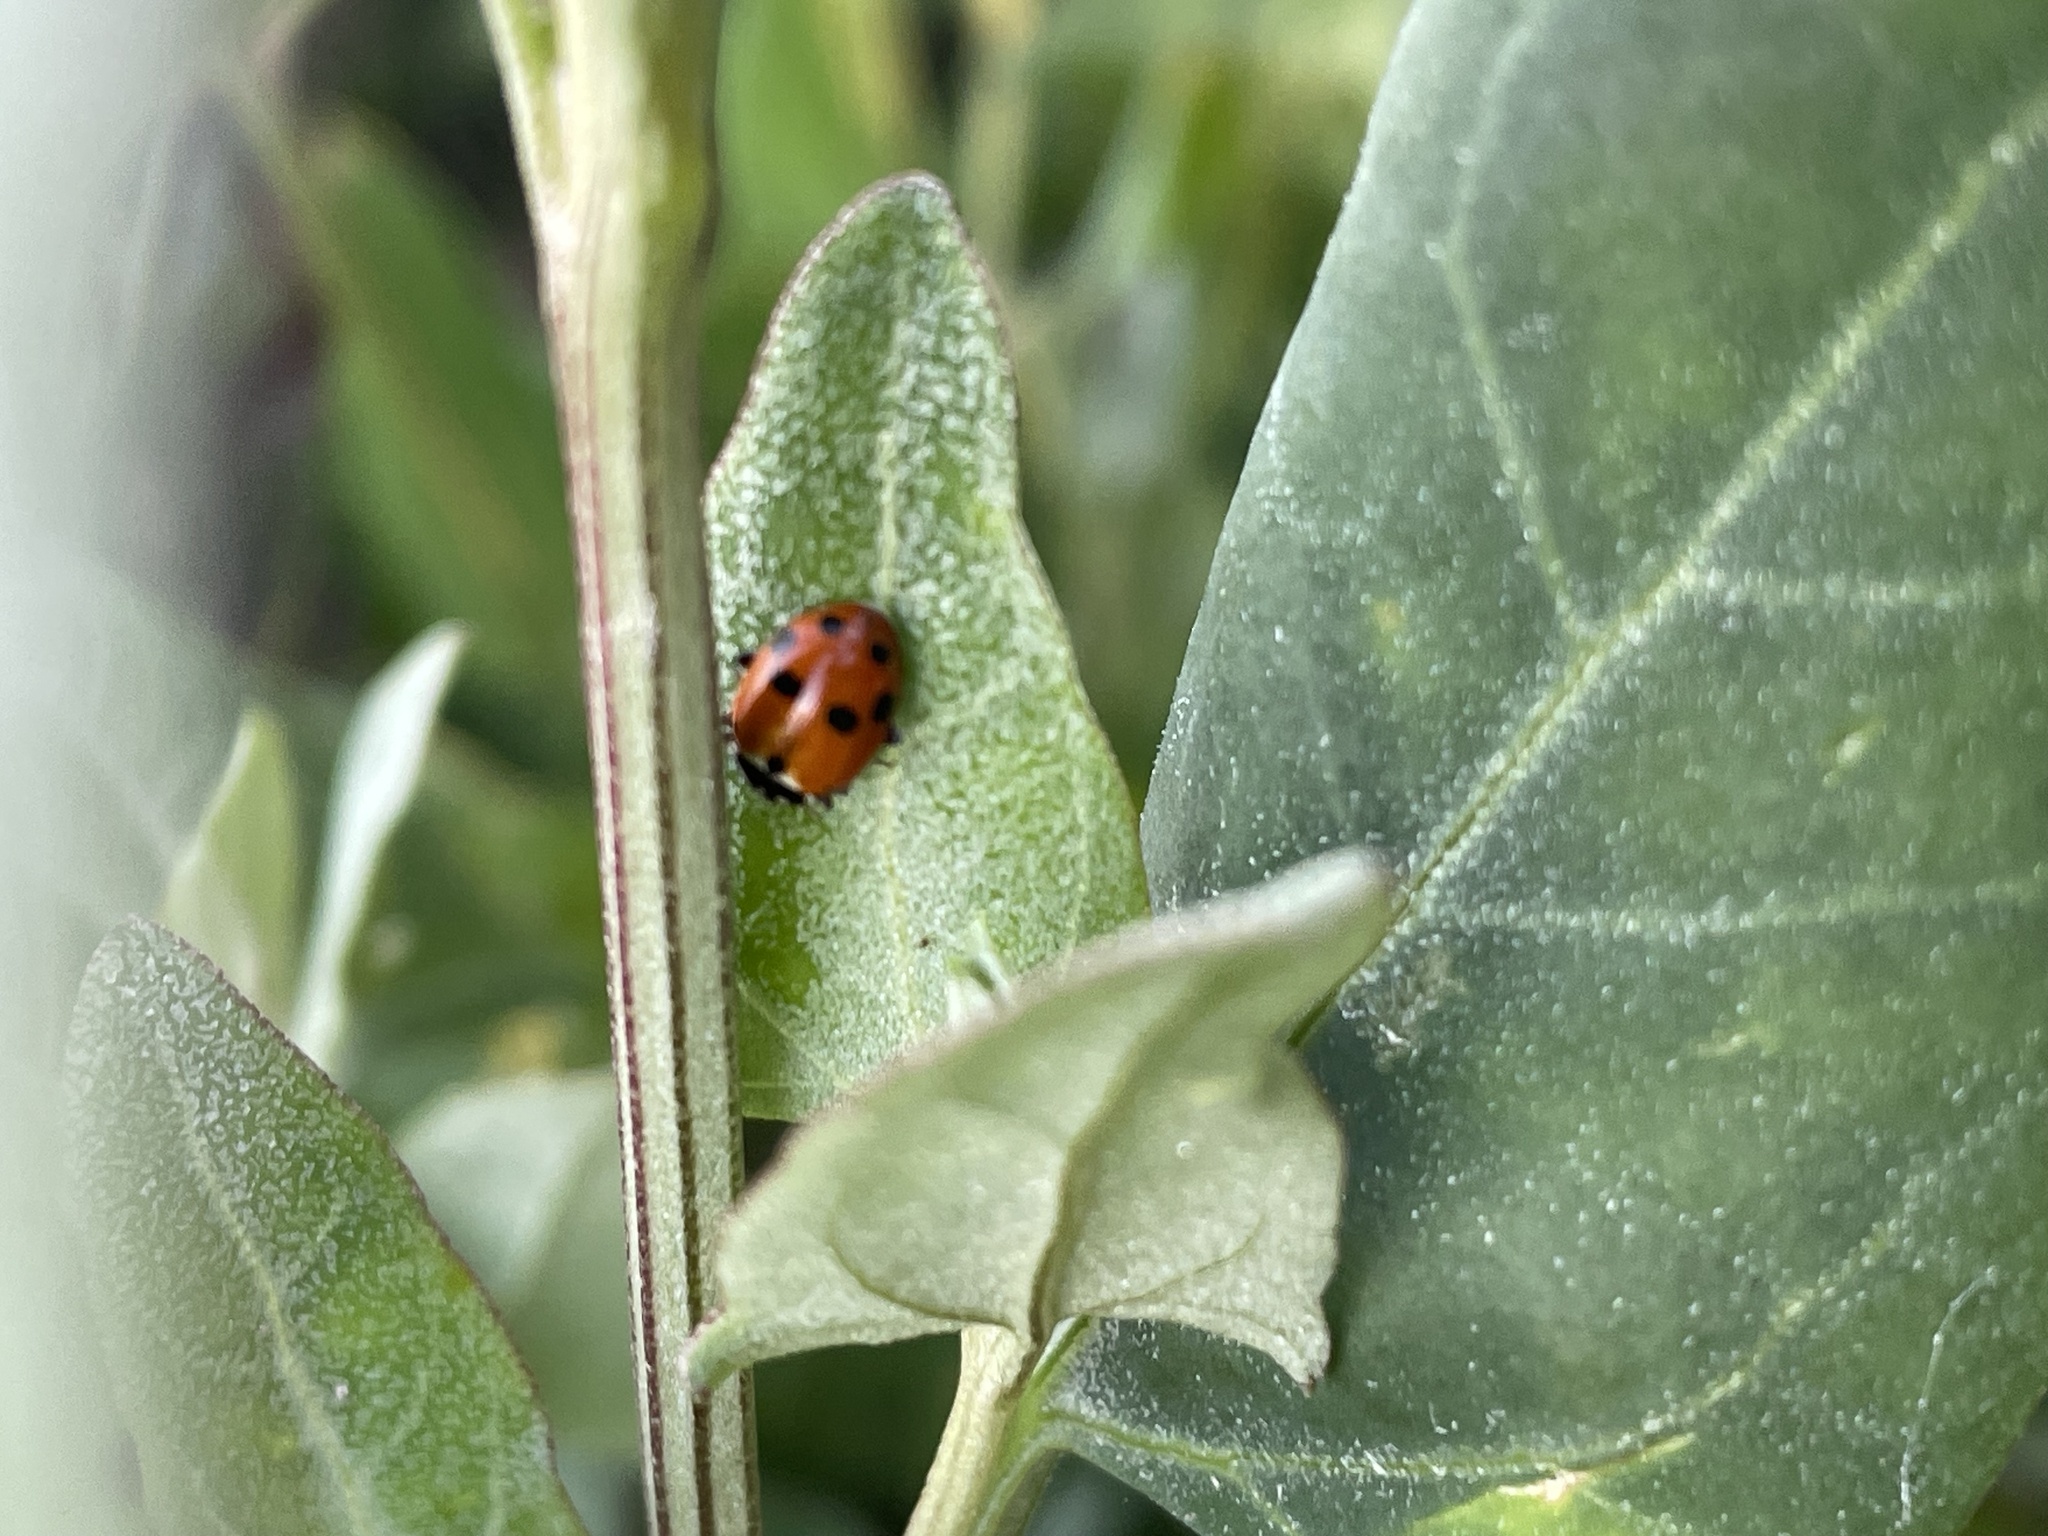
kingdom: Animalia
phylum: Arthropoda
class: Insecta
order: Coleoptera
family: Coccinellidae
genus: Hippodamia
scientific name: Hippodamia variegata
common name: Ladybird beetle
